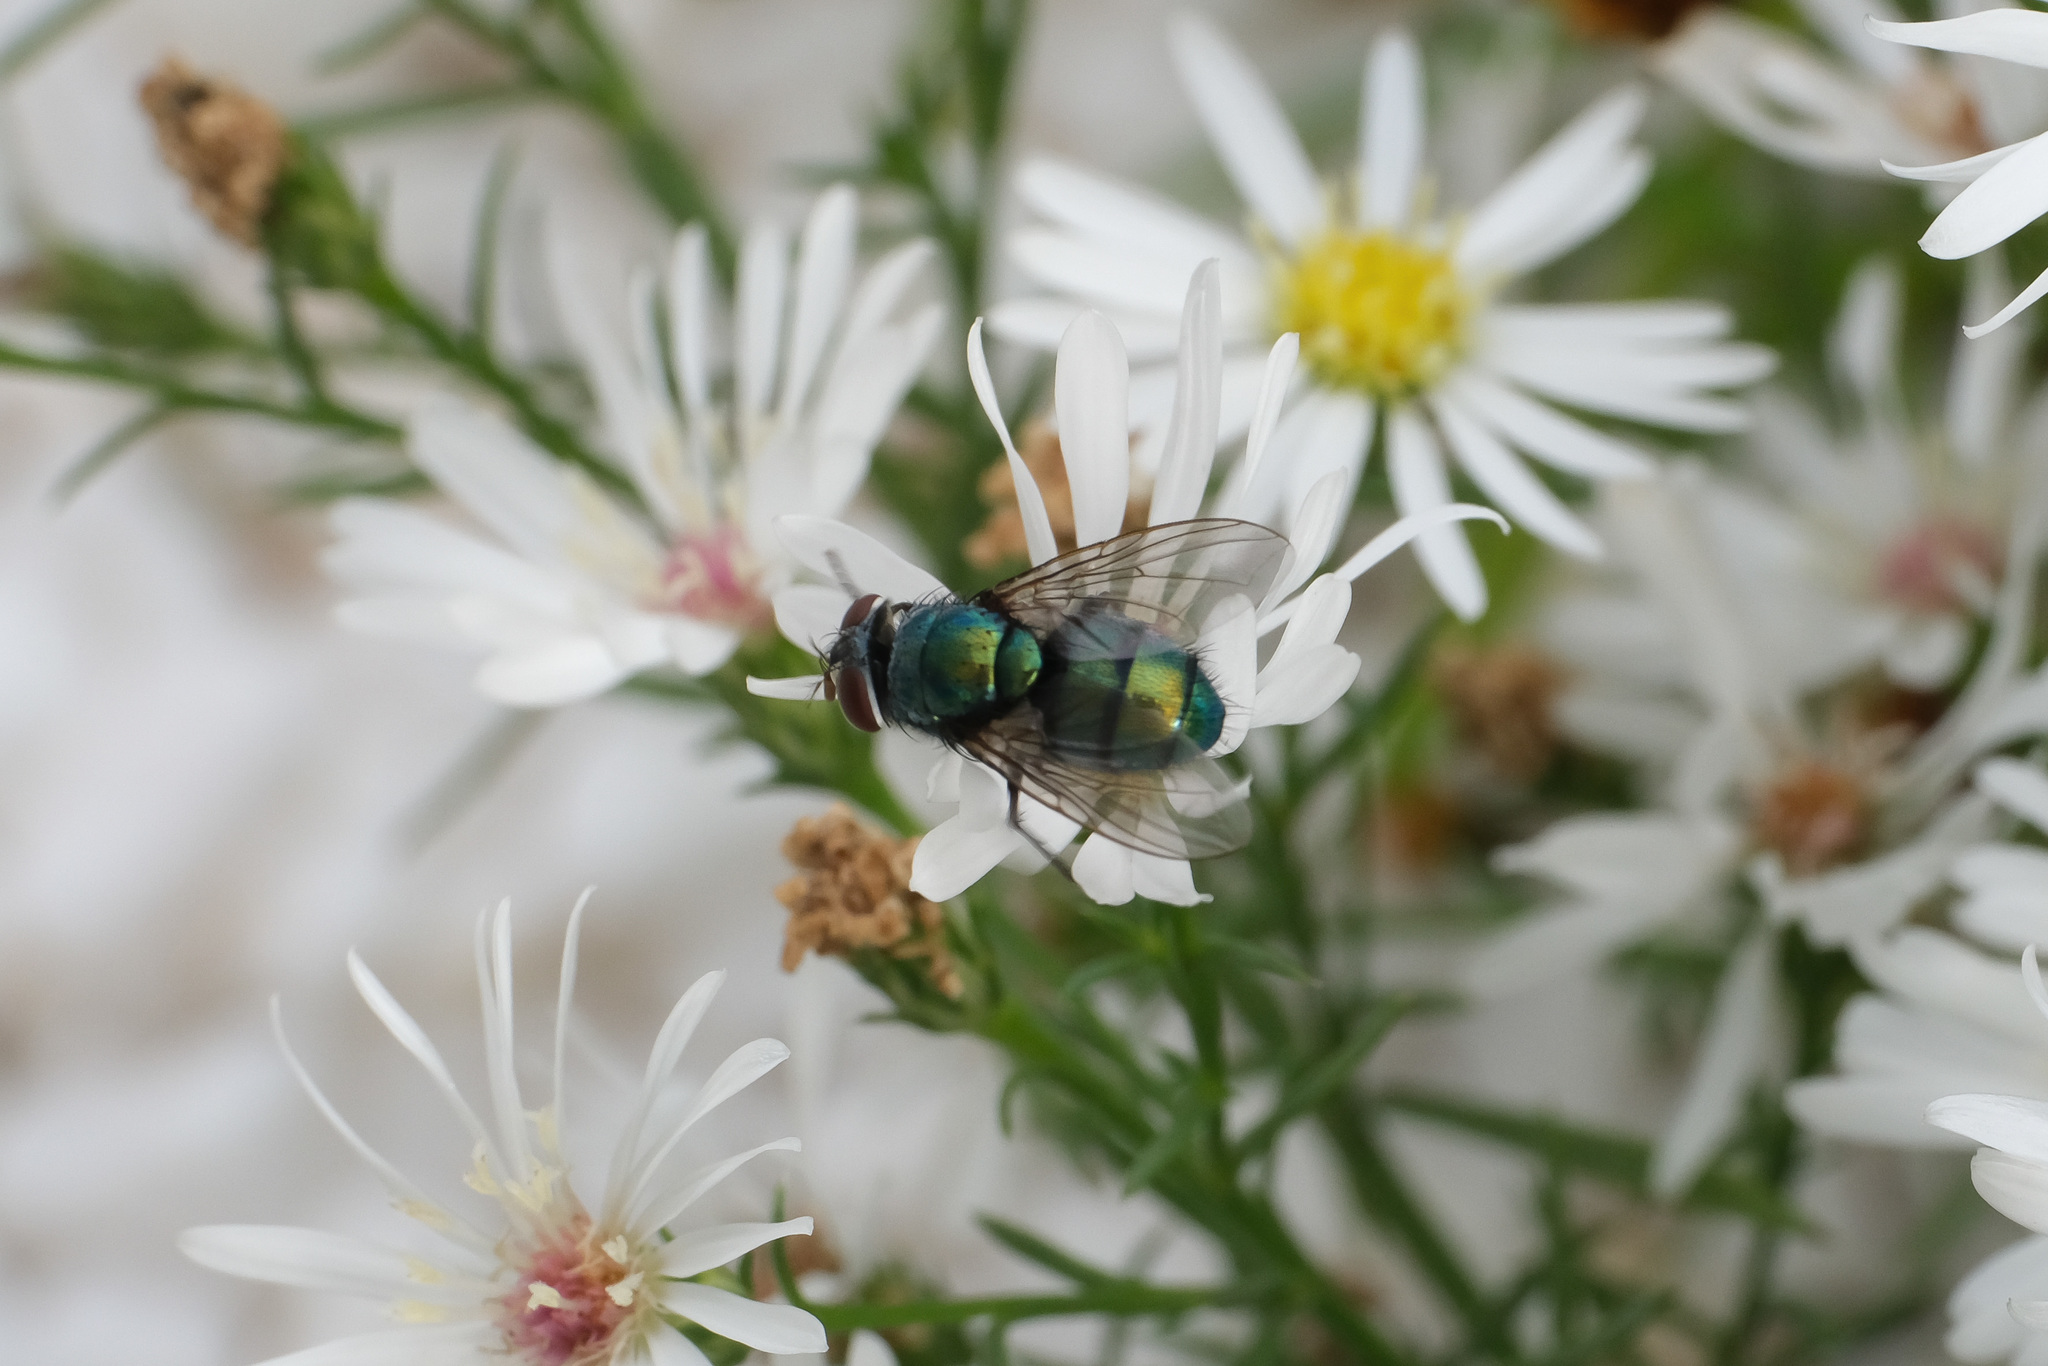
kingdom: Animalia
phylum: Arthropoda
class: Insecta
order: Diptera
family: Calliphoridae
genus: Lucilia
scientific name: Lucilia sericata
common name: Blow fly
